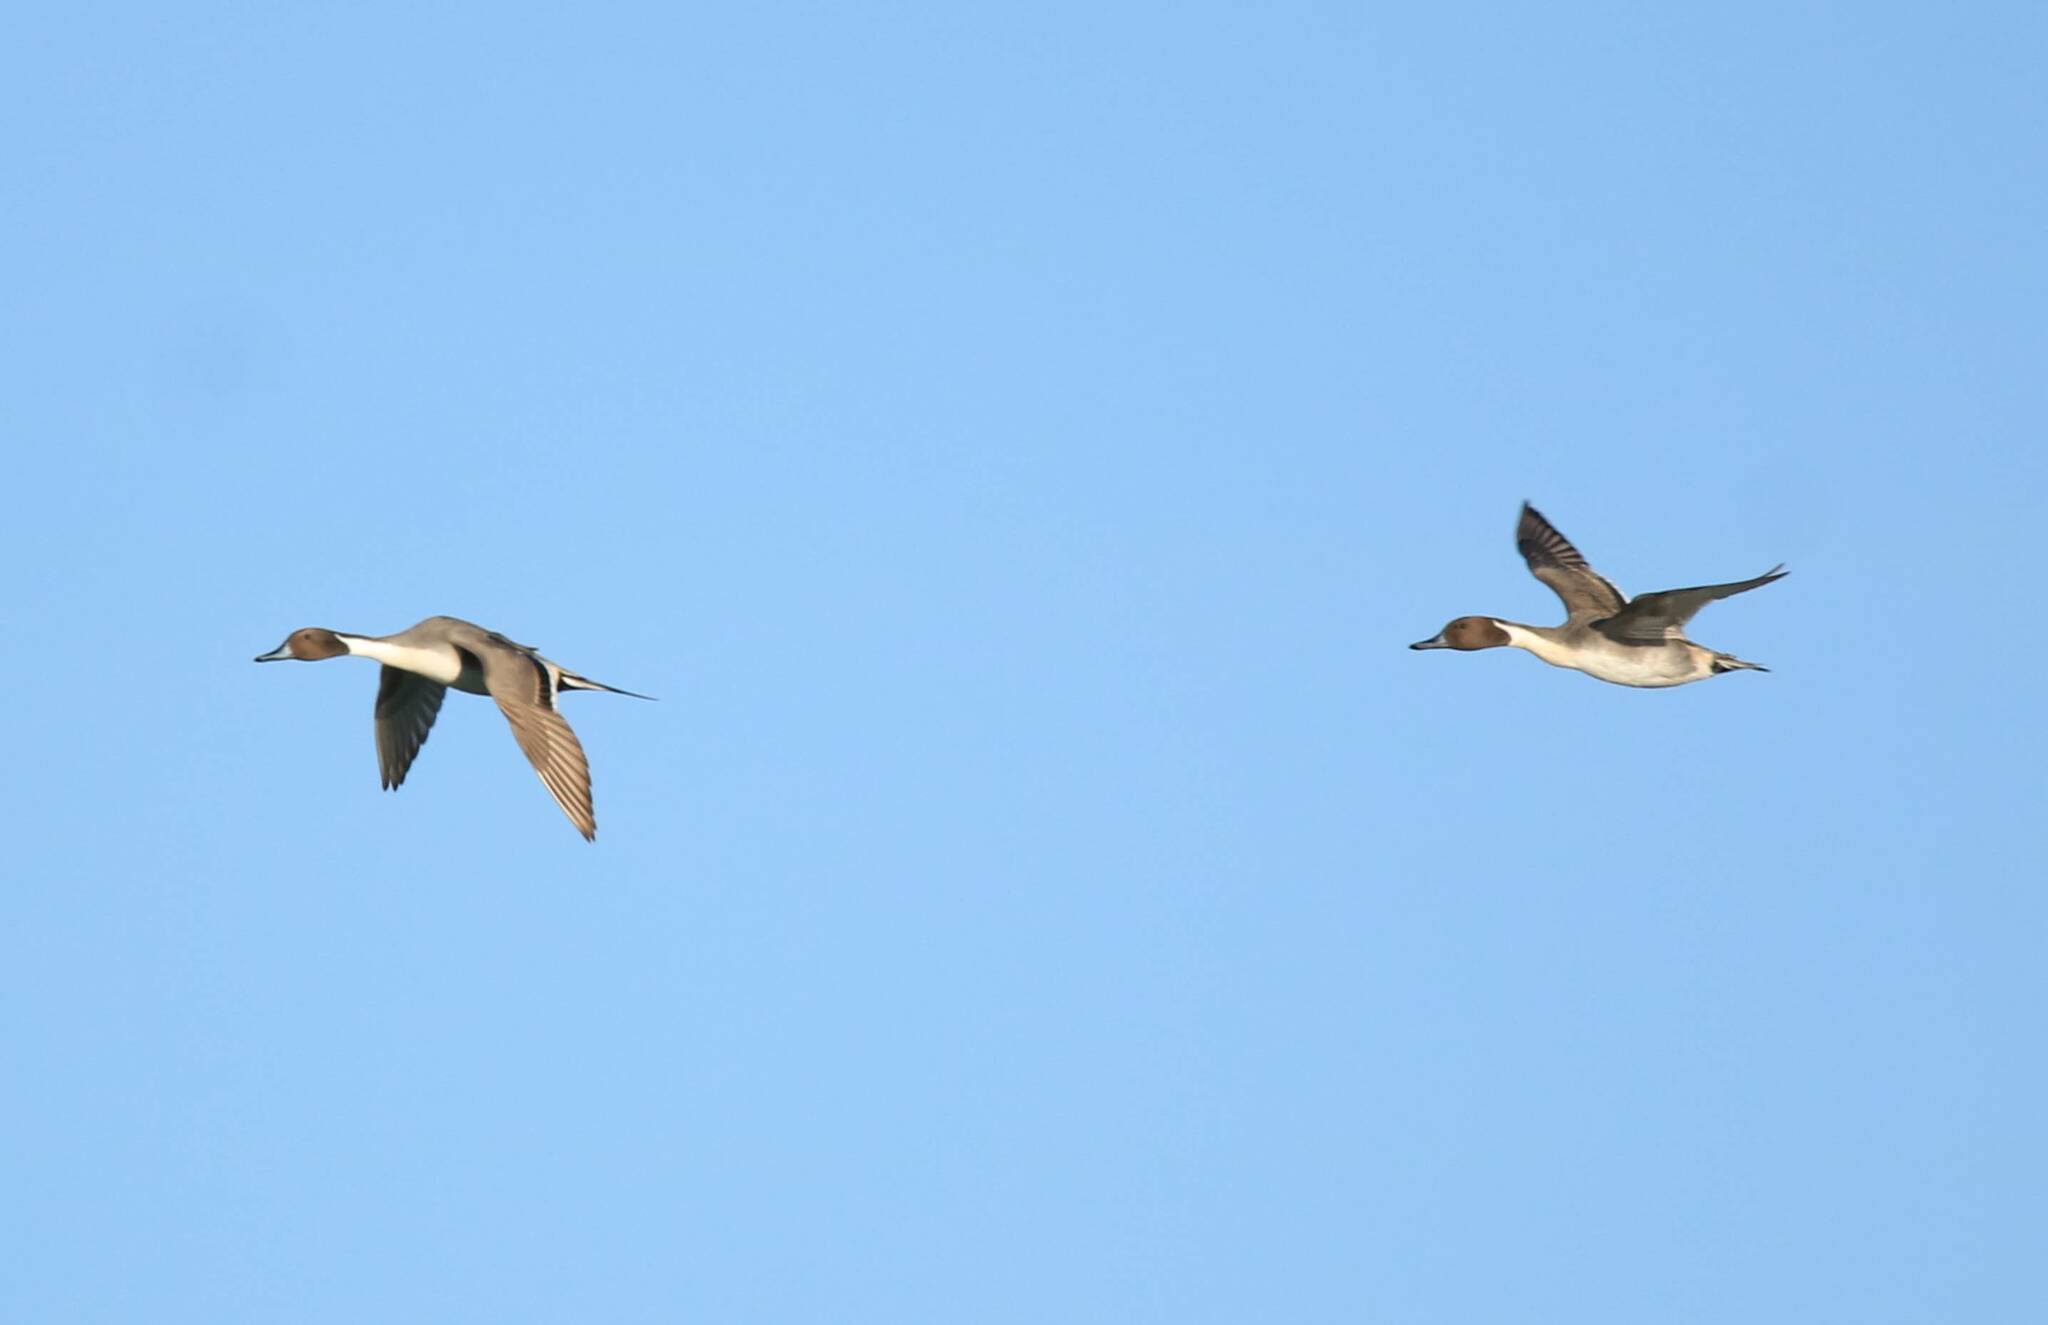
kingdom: Animalia
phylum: Chordata
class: Aves
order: Anseriformes
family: Anatidae
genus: Anas
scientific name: Anas acuta
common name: Northern pintail
